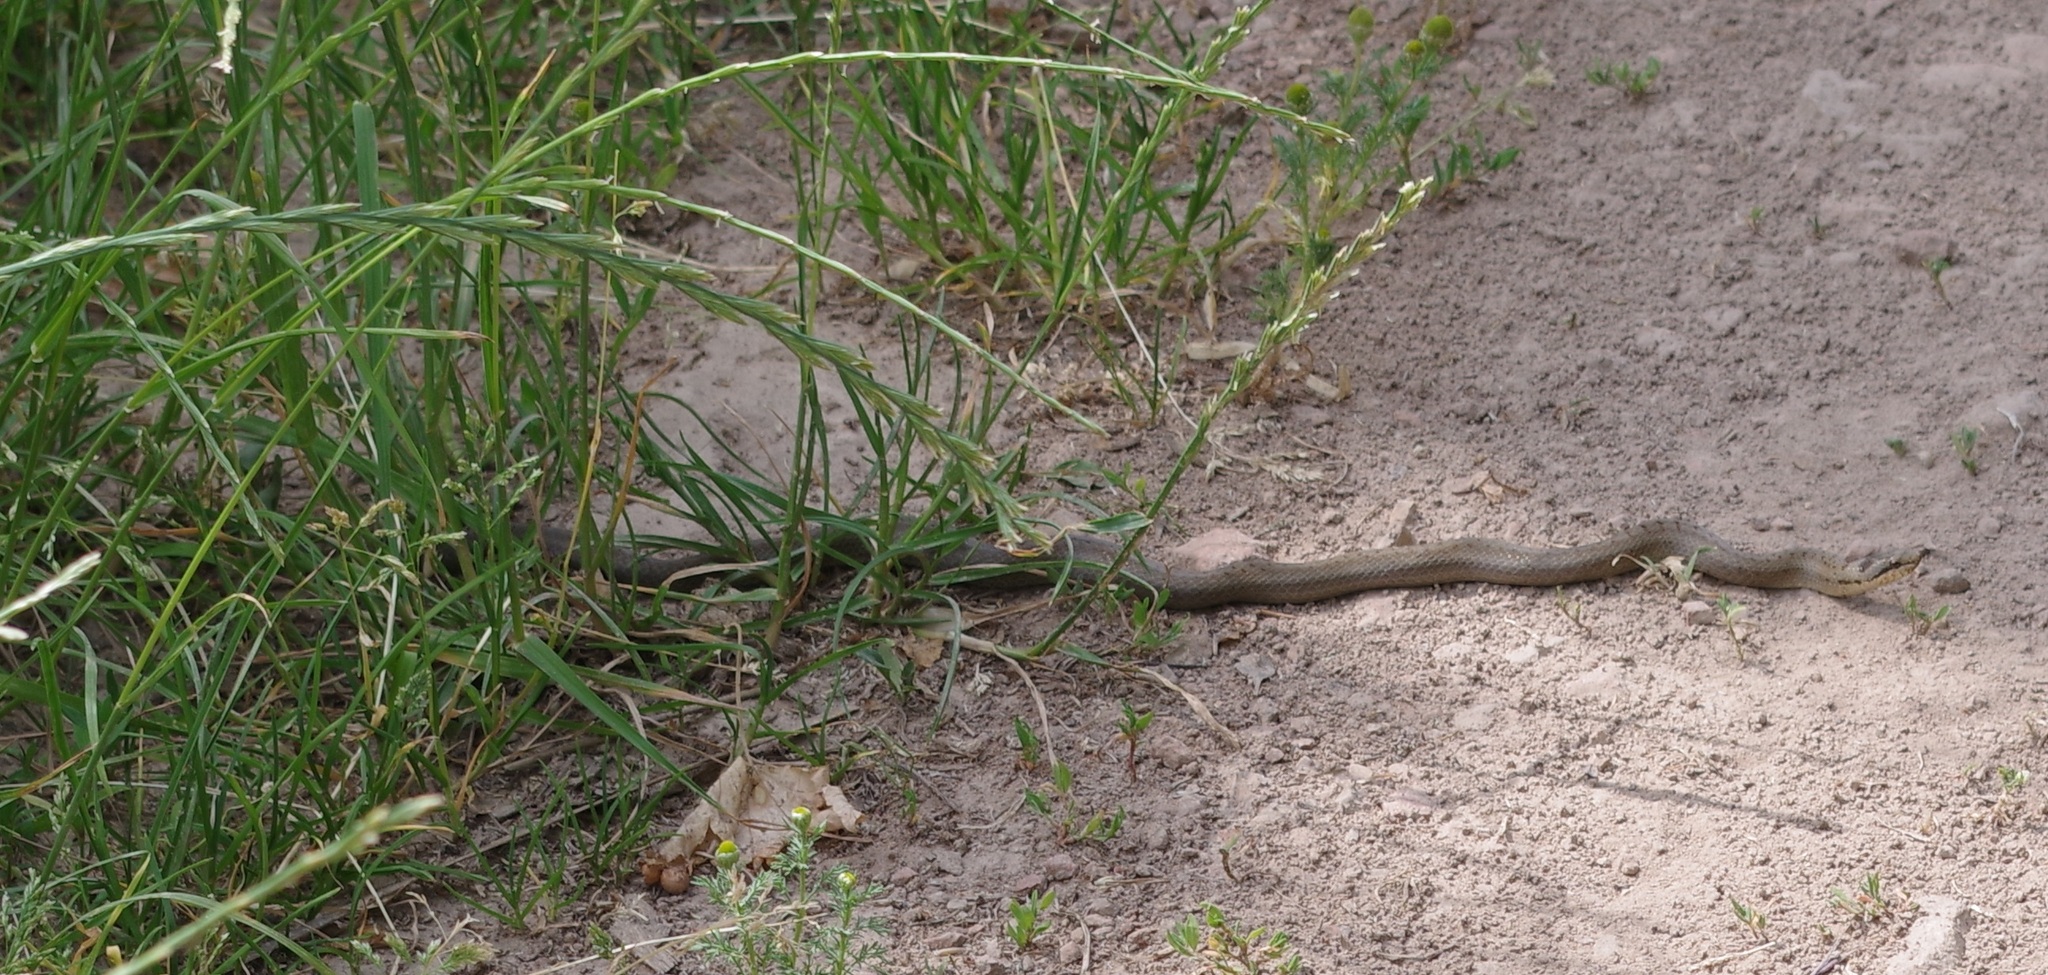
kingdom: Animalia
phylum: Chordata
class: Squamata
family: Colubridae
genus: Coronella
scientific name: Coronella austriaca
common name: Smooth snake
